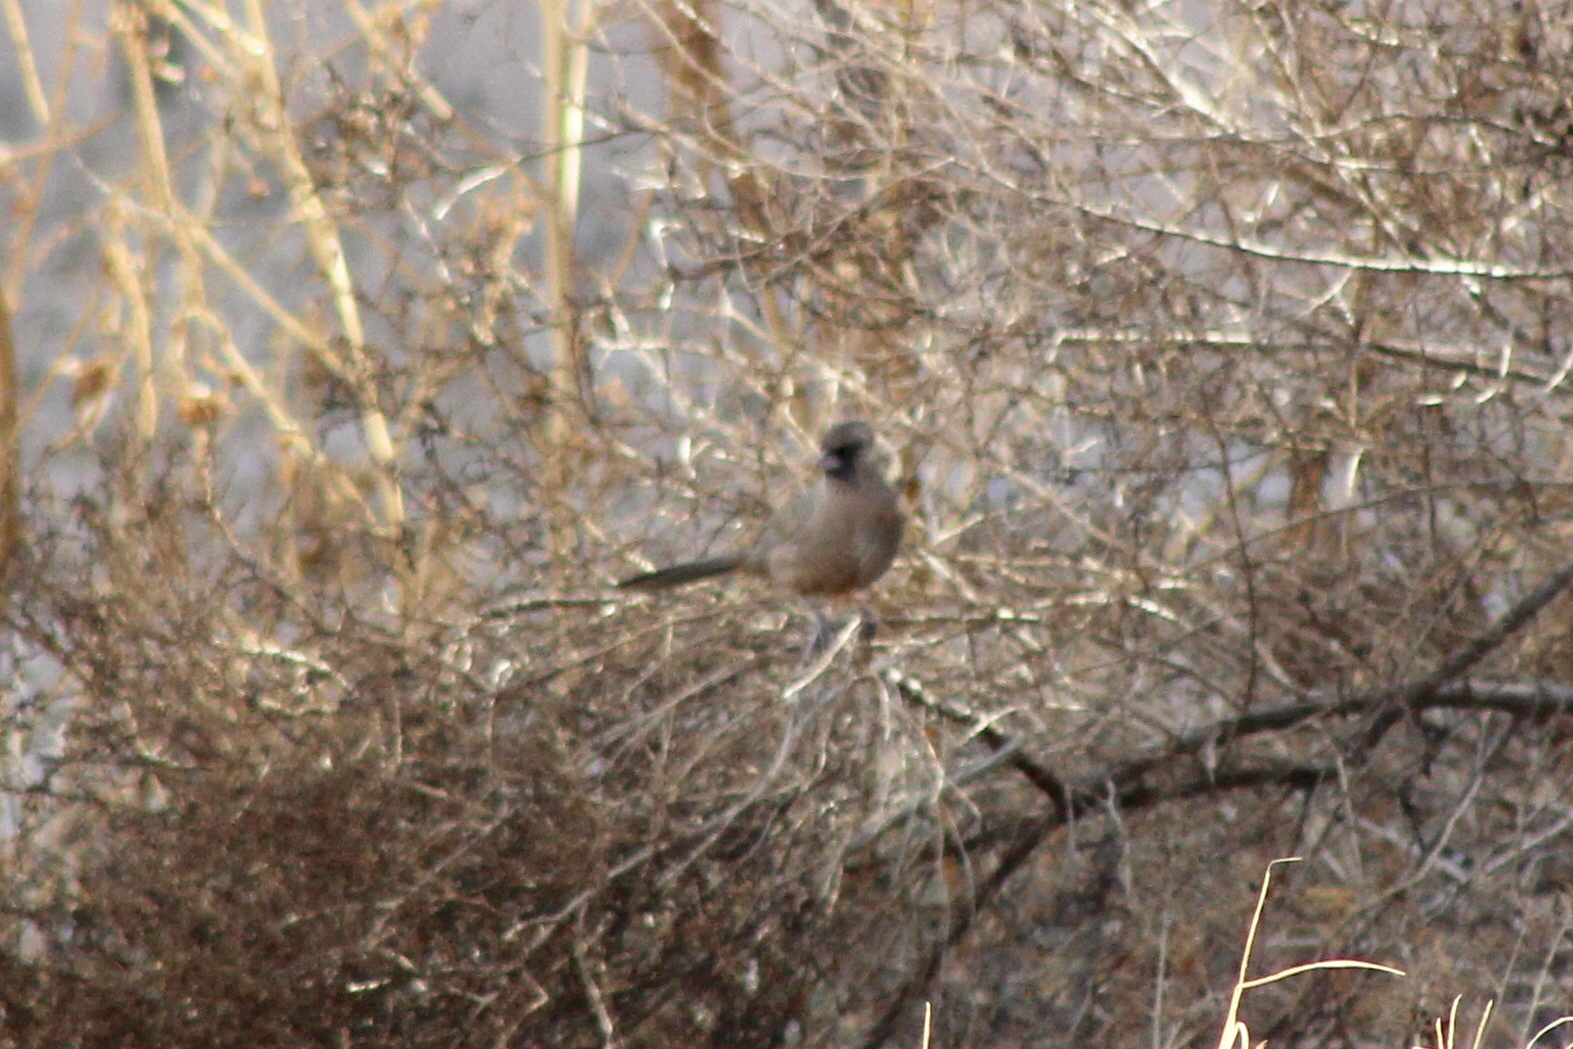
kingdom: Animalia
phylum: Chordata
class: Aves
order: Passeriformes
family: Passerellidae
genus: Melozone
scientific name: Melozone aberti
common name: Abert's towhee
